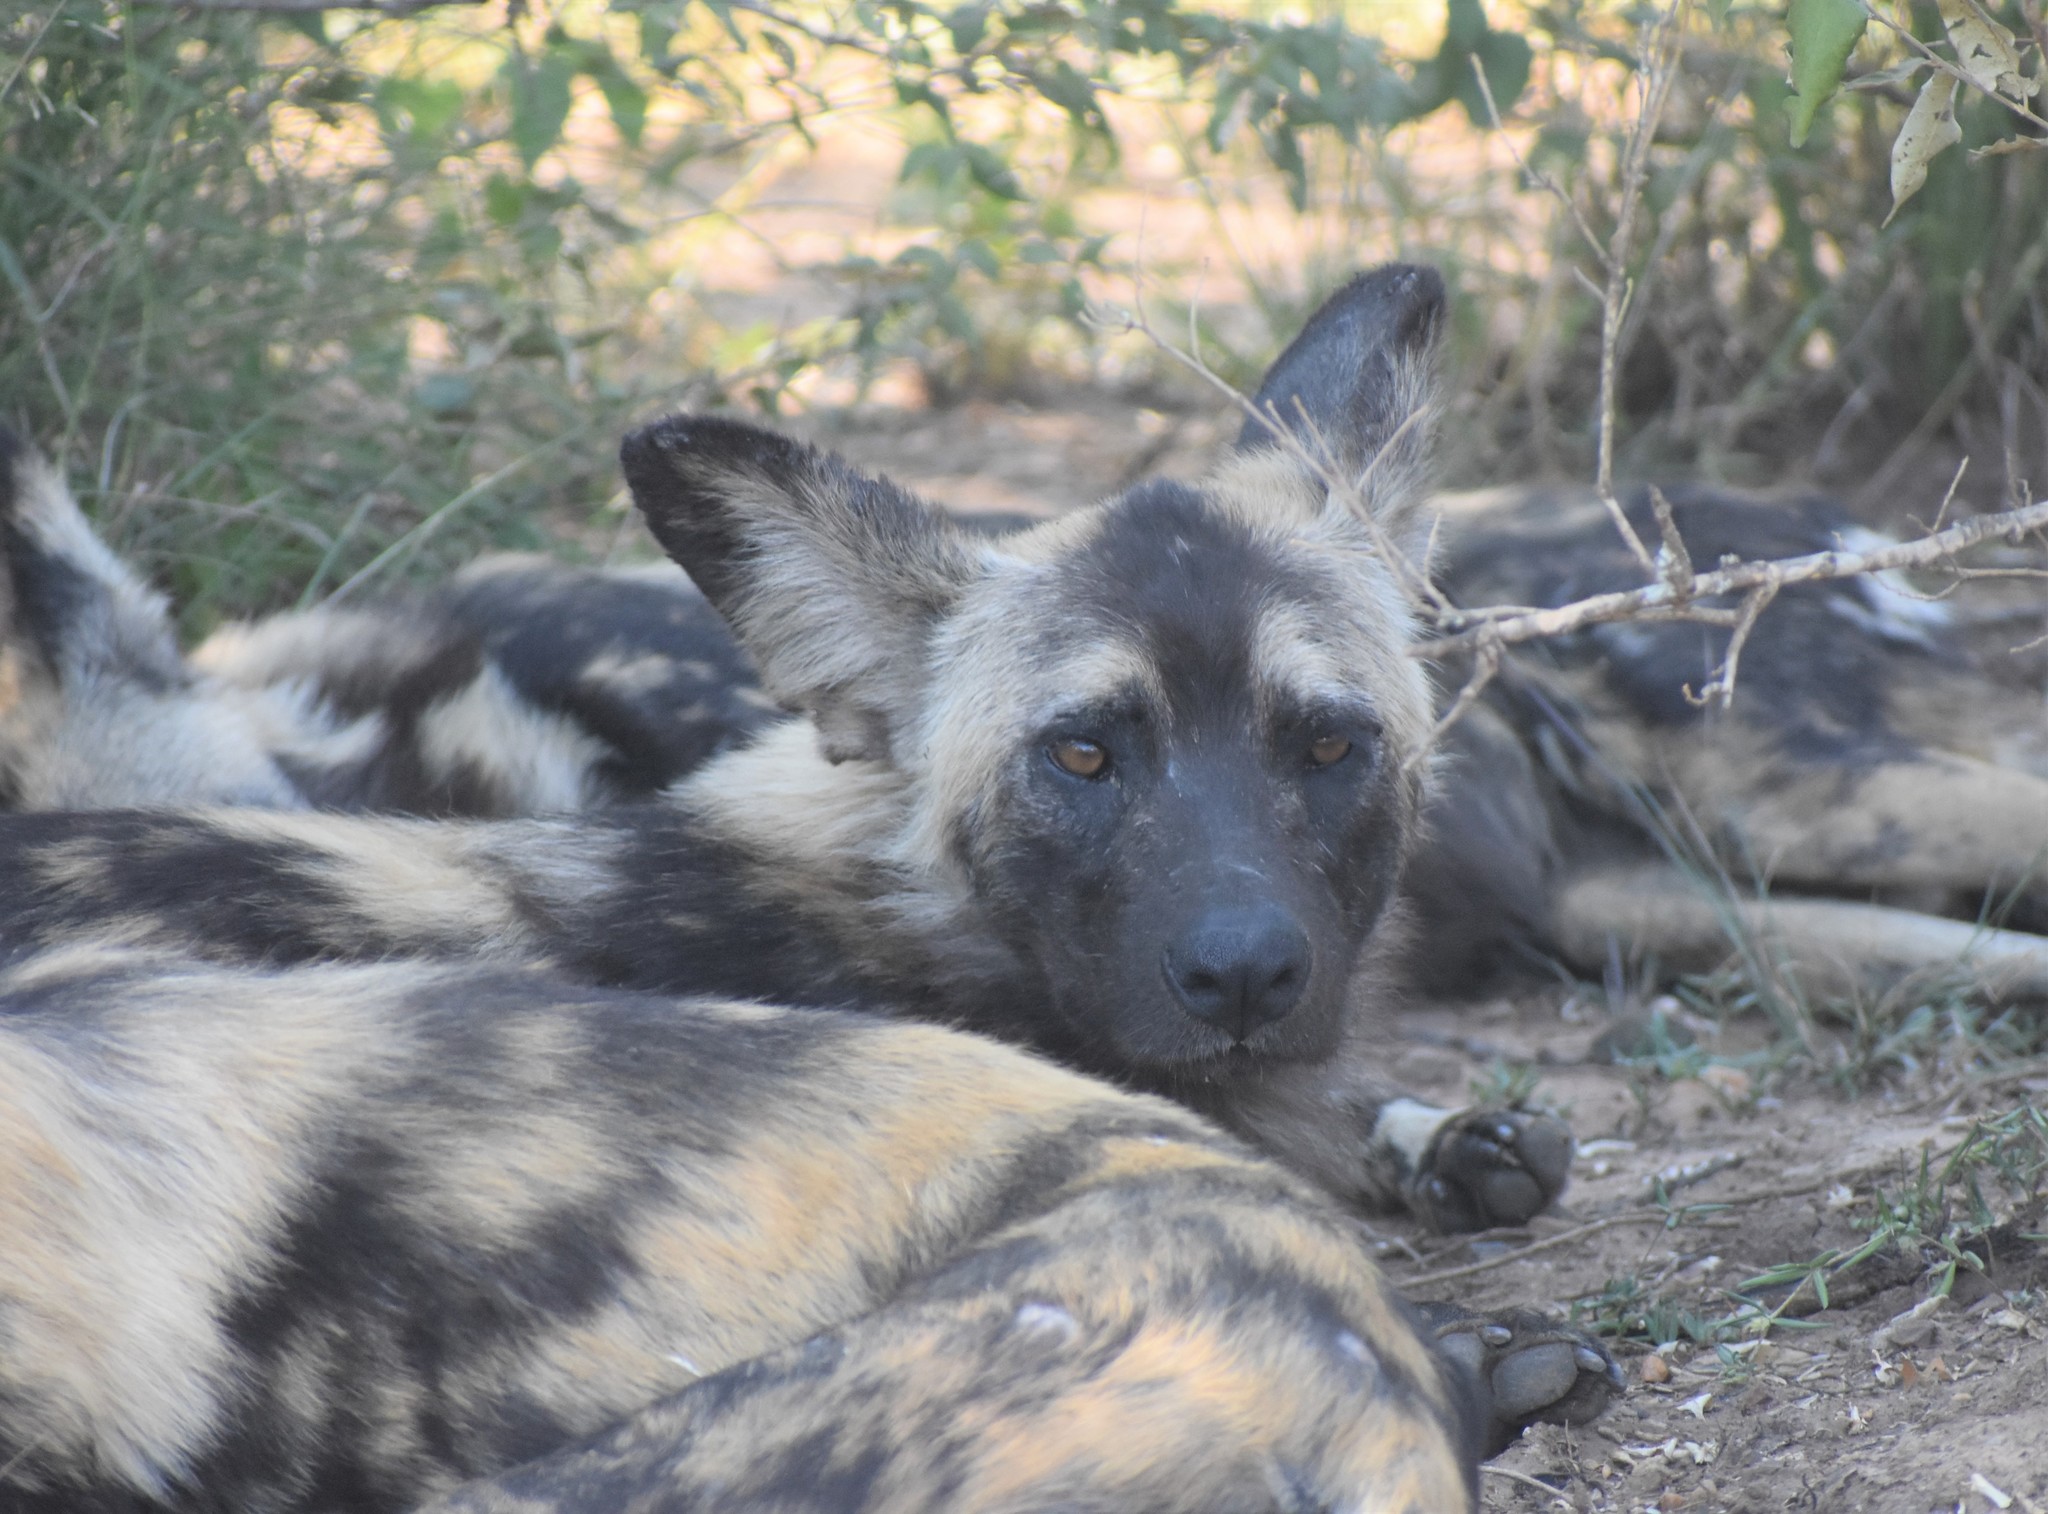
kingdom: Animalia
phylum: Chordata
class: Mammalia
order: Carnivora
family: Canidae
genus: Lycaon
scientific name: Lycaon pictus
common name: African wild dog
